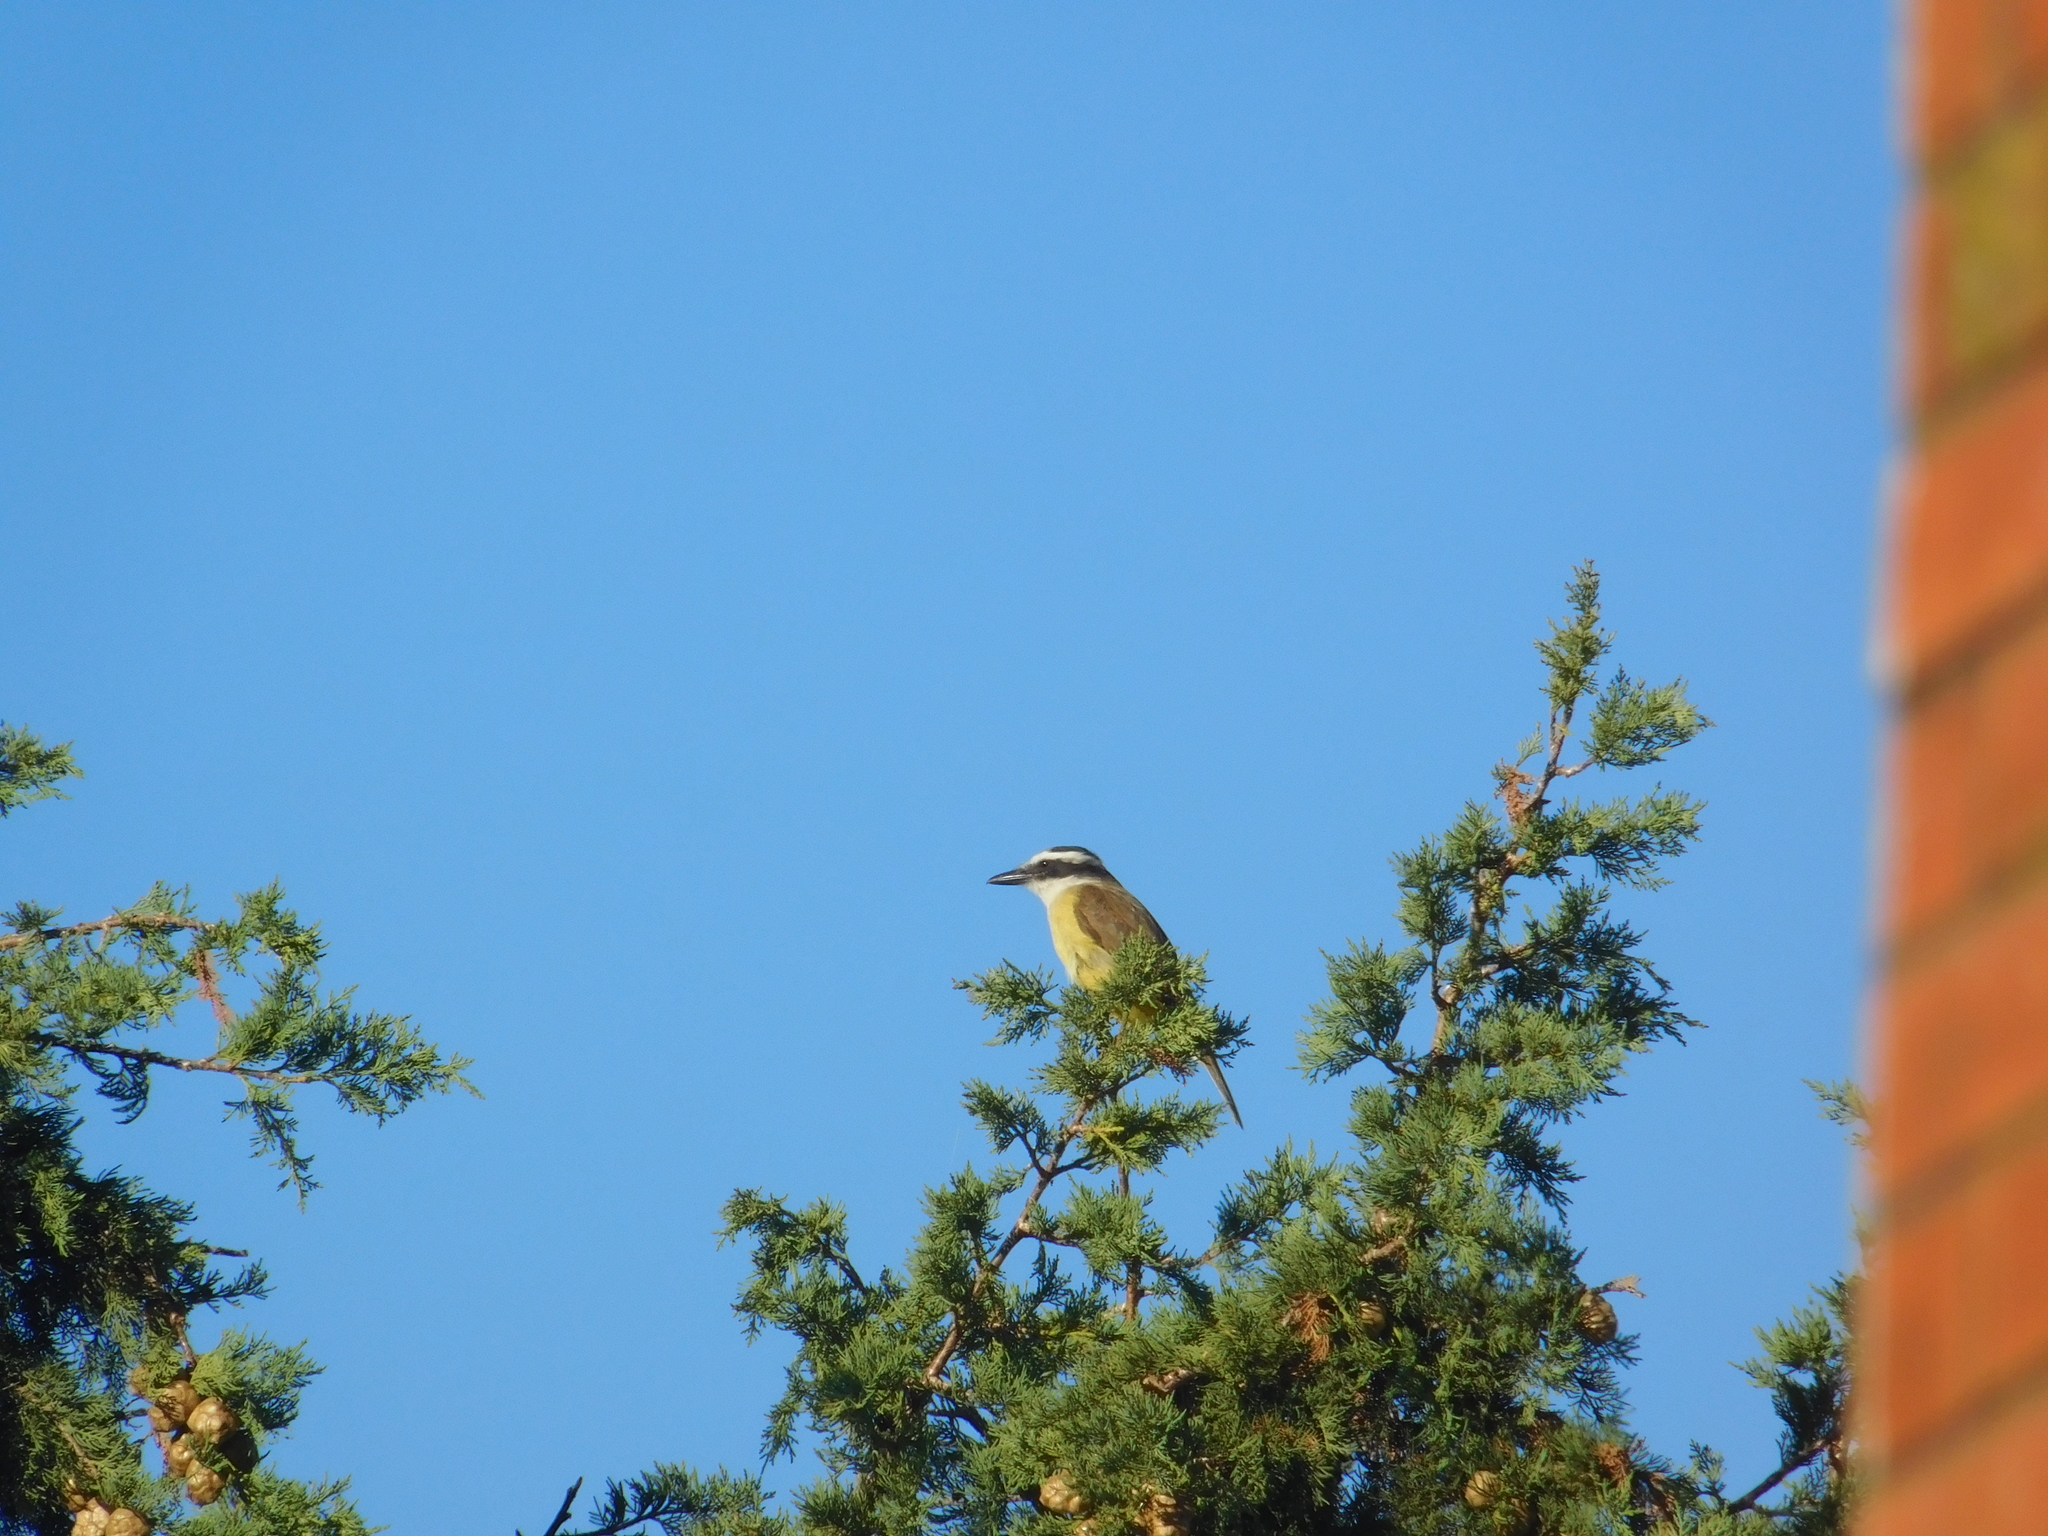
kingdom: Animalia
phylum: Chordata
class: Aves
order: Passeriformes
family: Tyrannidae
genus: Pitangus
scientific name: Pitangus sulphuratus
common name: Great kiskadee
